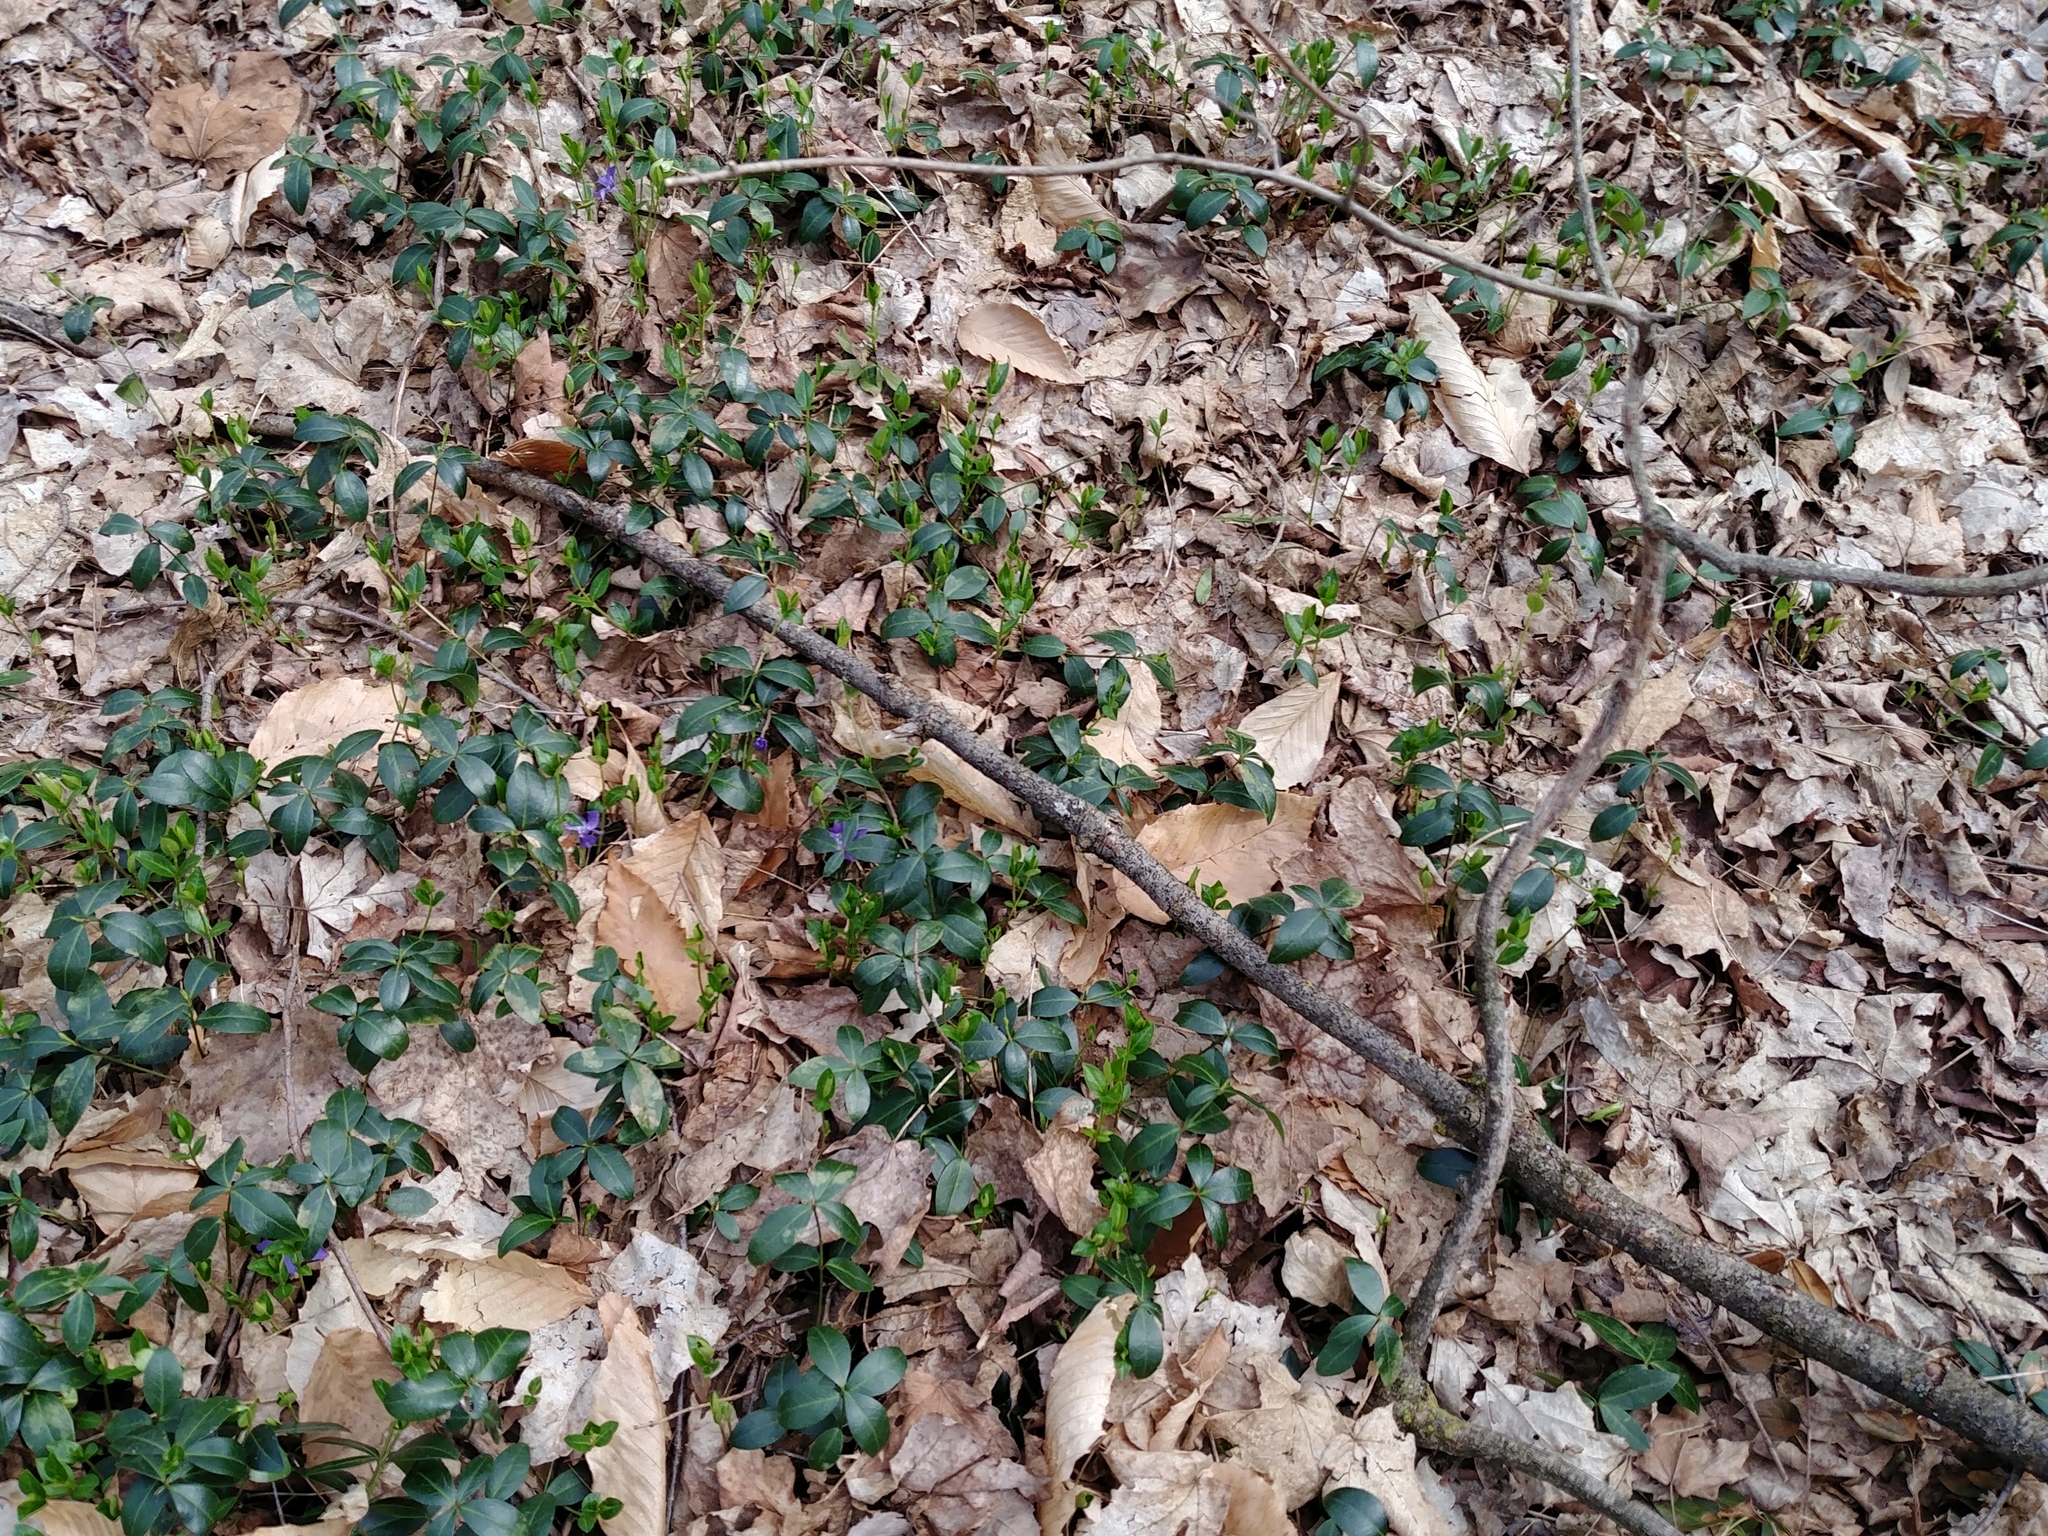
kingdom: Plantae
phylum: Tracheophyta
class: Magnoliopsida
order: Gentianales
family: Apocynaceae
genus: Vinca
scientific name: Vinca minor
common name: Lesser periwinkle
